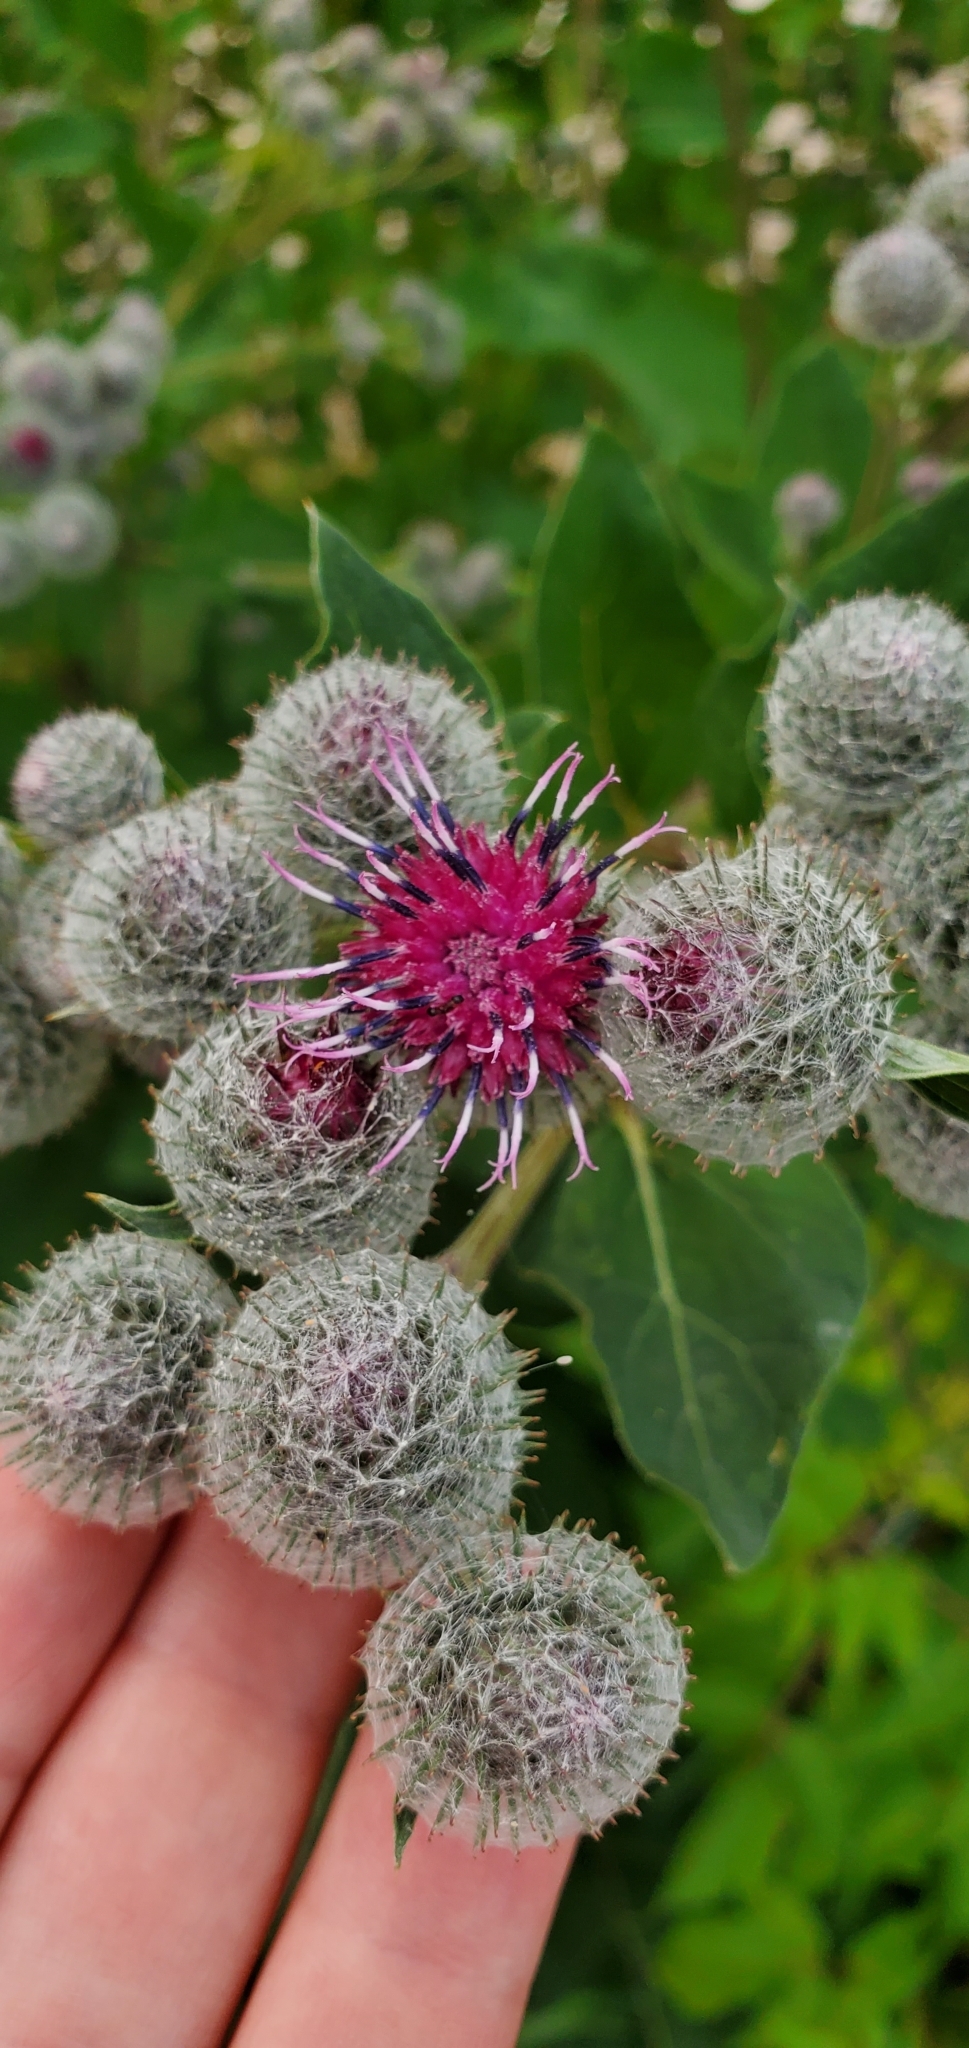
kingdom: Plantae
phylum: Tracheophyta
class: Magnoliopsida
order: Asterales
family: Asteraceae
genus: Arctium
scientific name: Arctium tomentosum
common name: Woolly burdock
